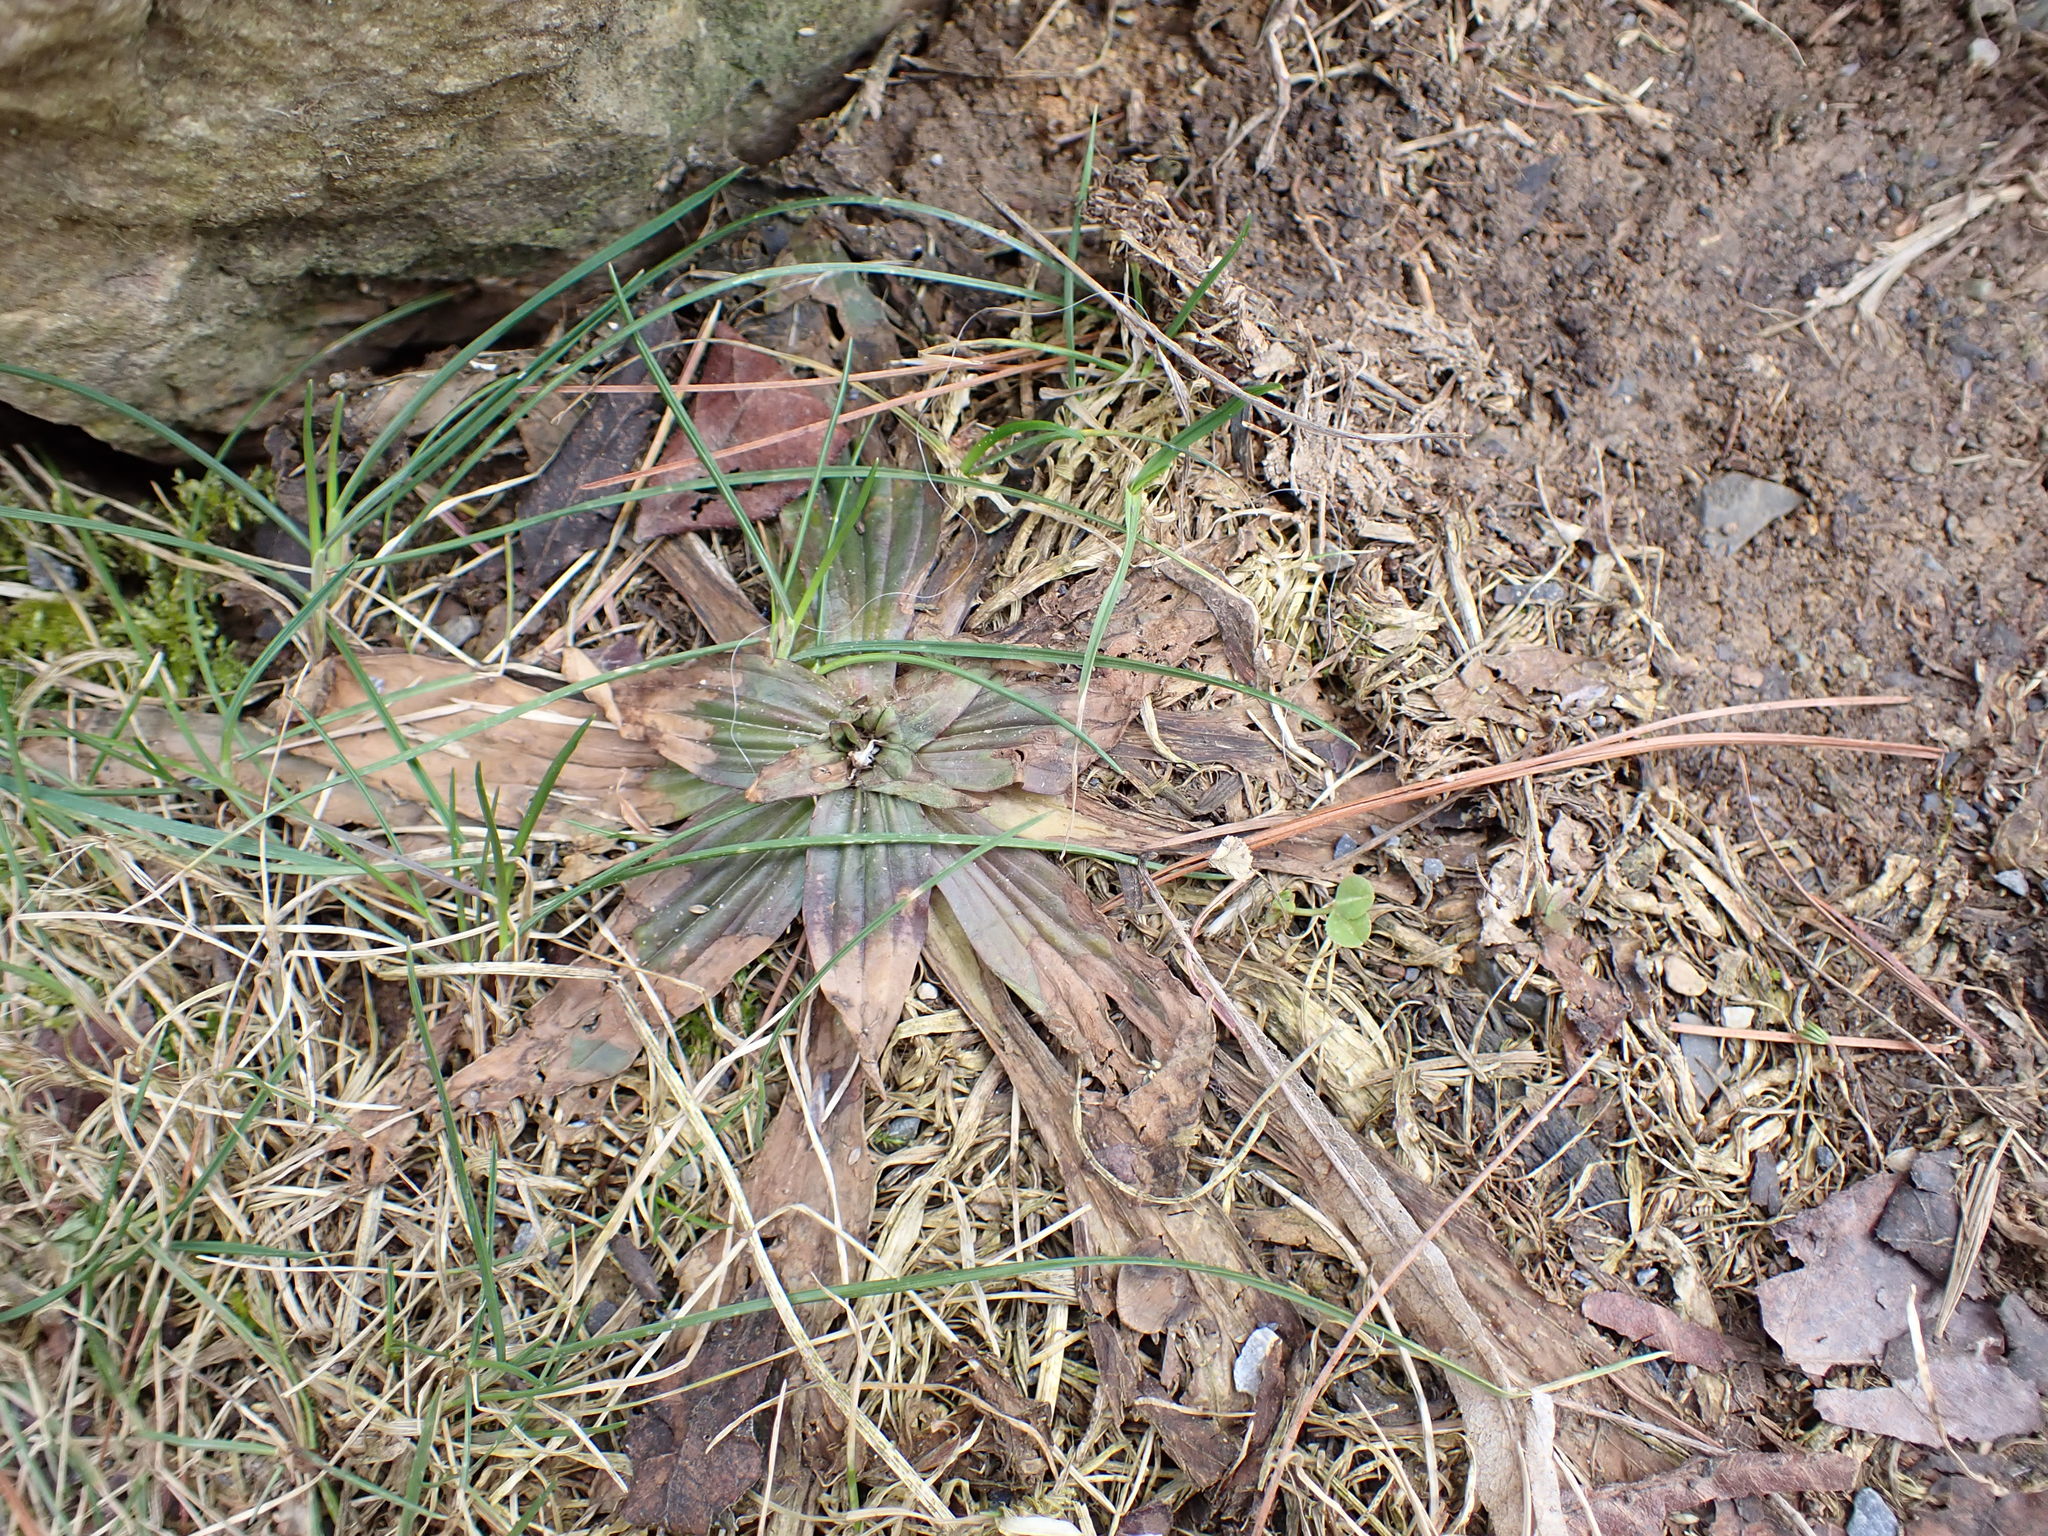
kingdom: Plantae
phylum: Tracheophyta
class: Magnoliopsida
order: Lamiales
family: Plantaginaceae
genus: Plantago
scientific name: Plantago lanceolata
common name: Ribwort plantain
